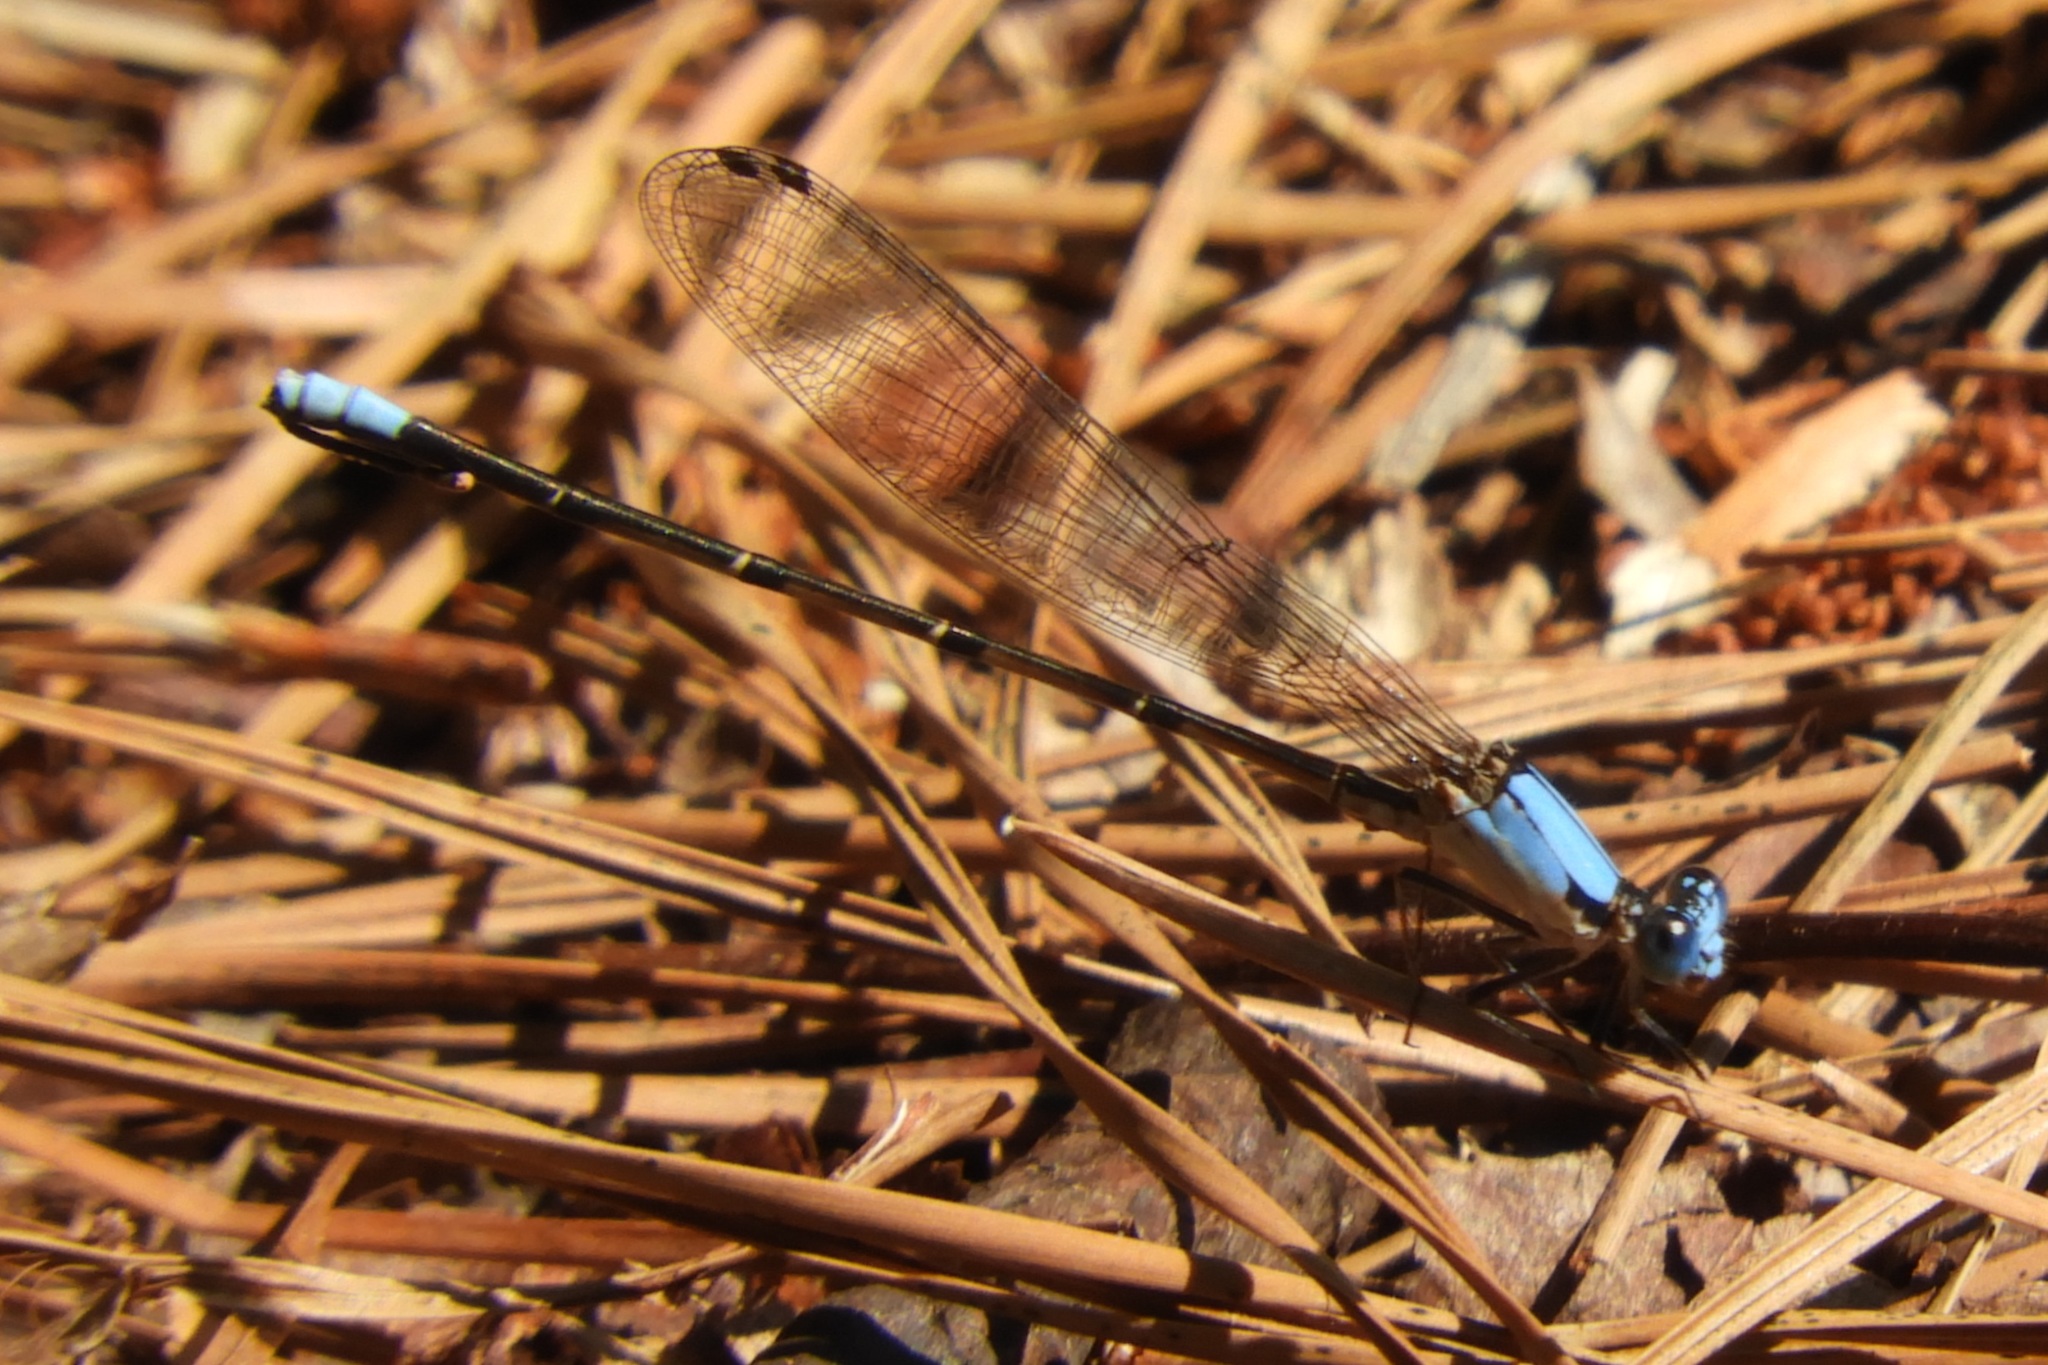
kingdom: Animalia
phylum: Arthropoda
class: Insecta
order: Odonata
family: Coenagrionidae
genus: Argia
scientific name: Argia apicalis
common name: Blue-fronted dancer
